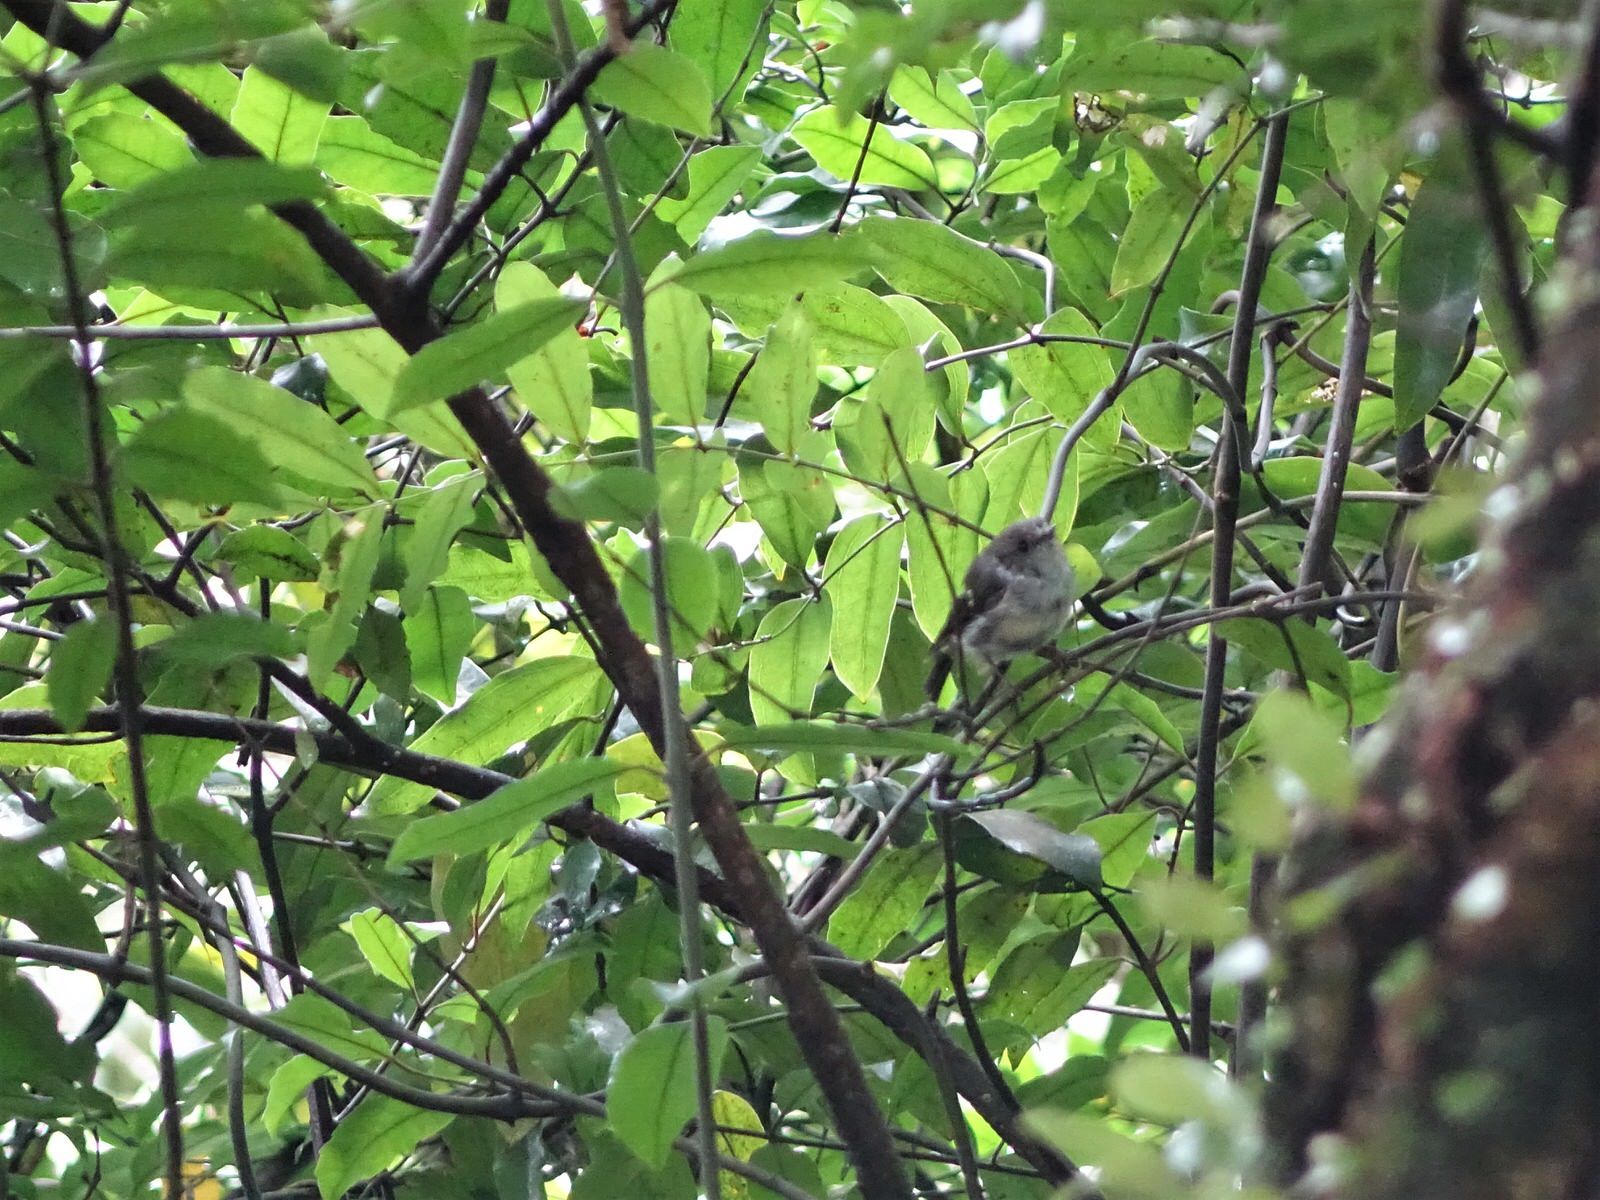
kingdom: Animalia
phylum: Chordata
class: Aves
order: Passeriformes
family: Petroicidae
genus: Petroica
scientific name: Petroica macrocephala
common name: Tomtit
